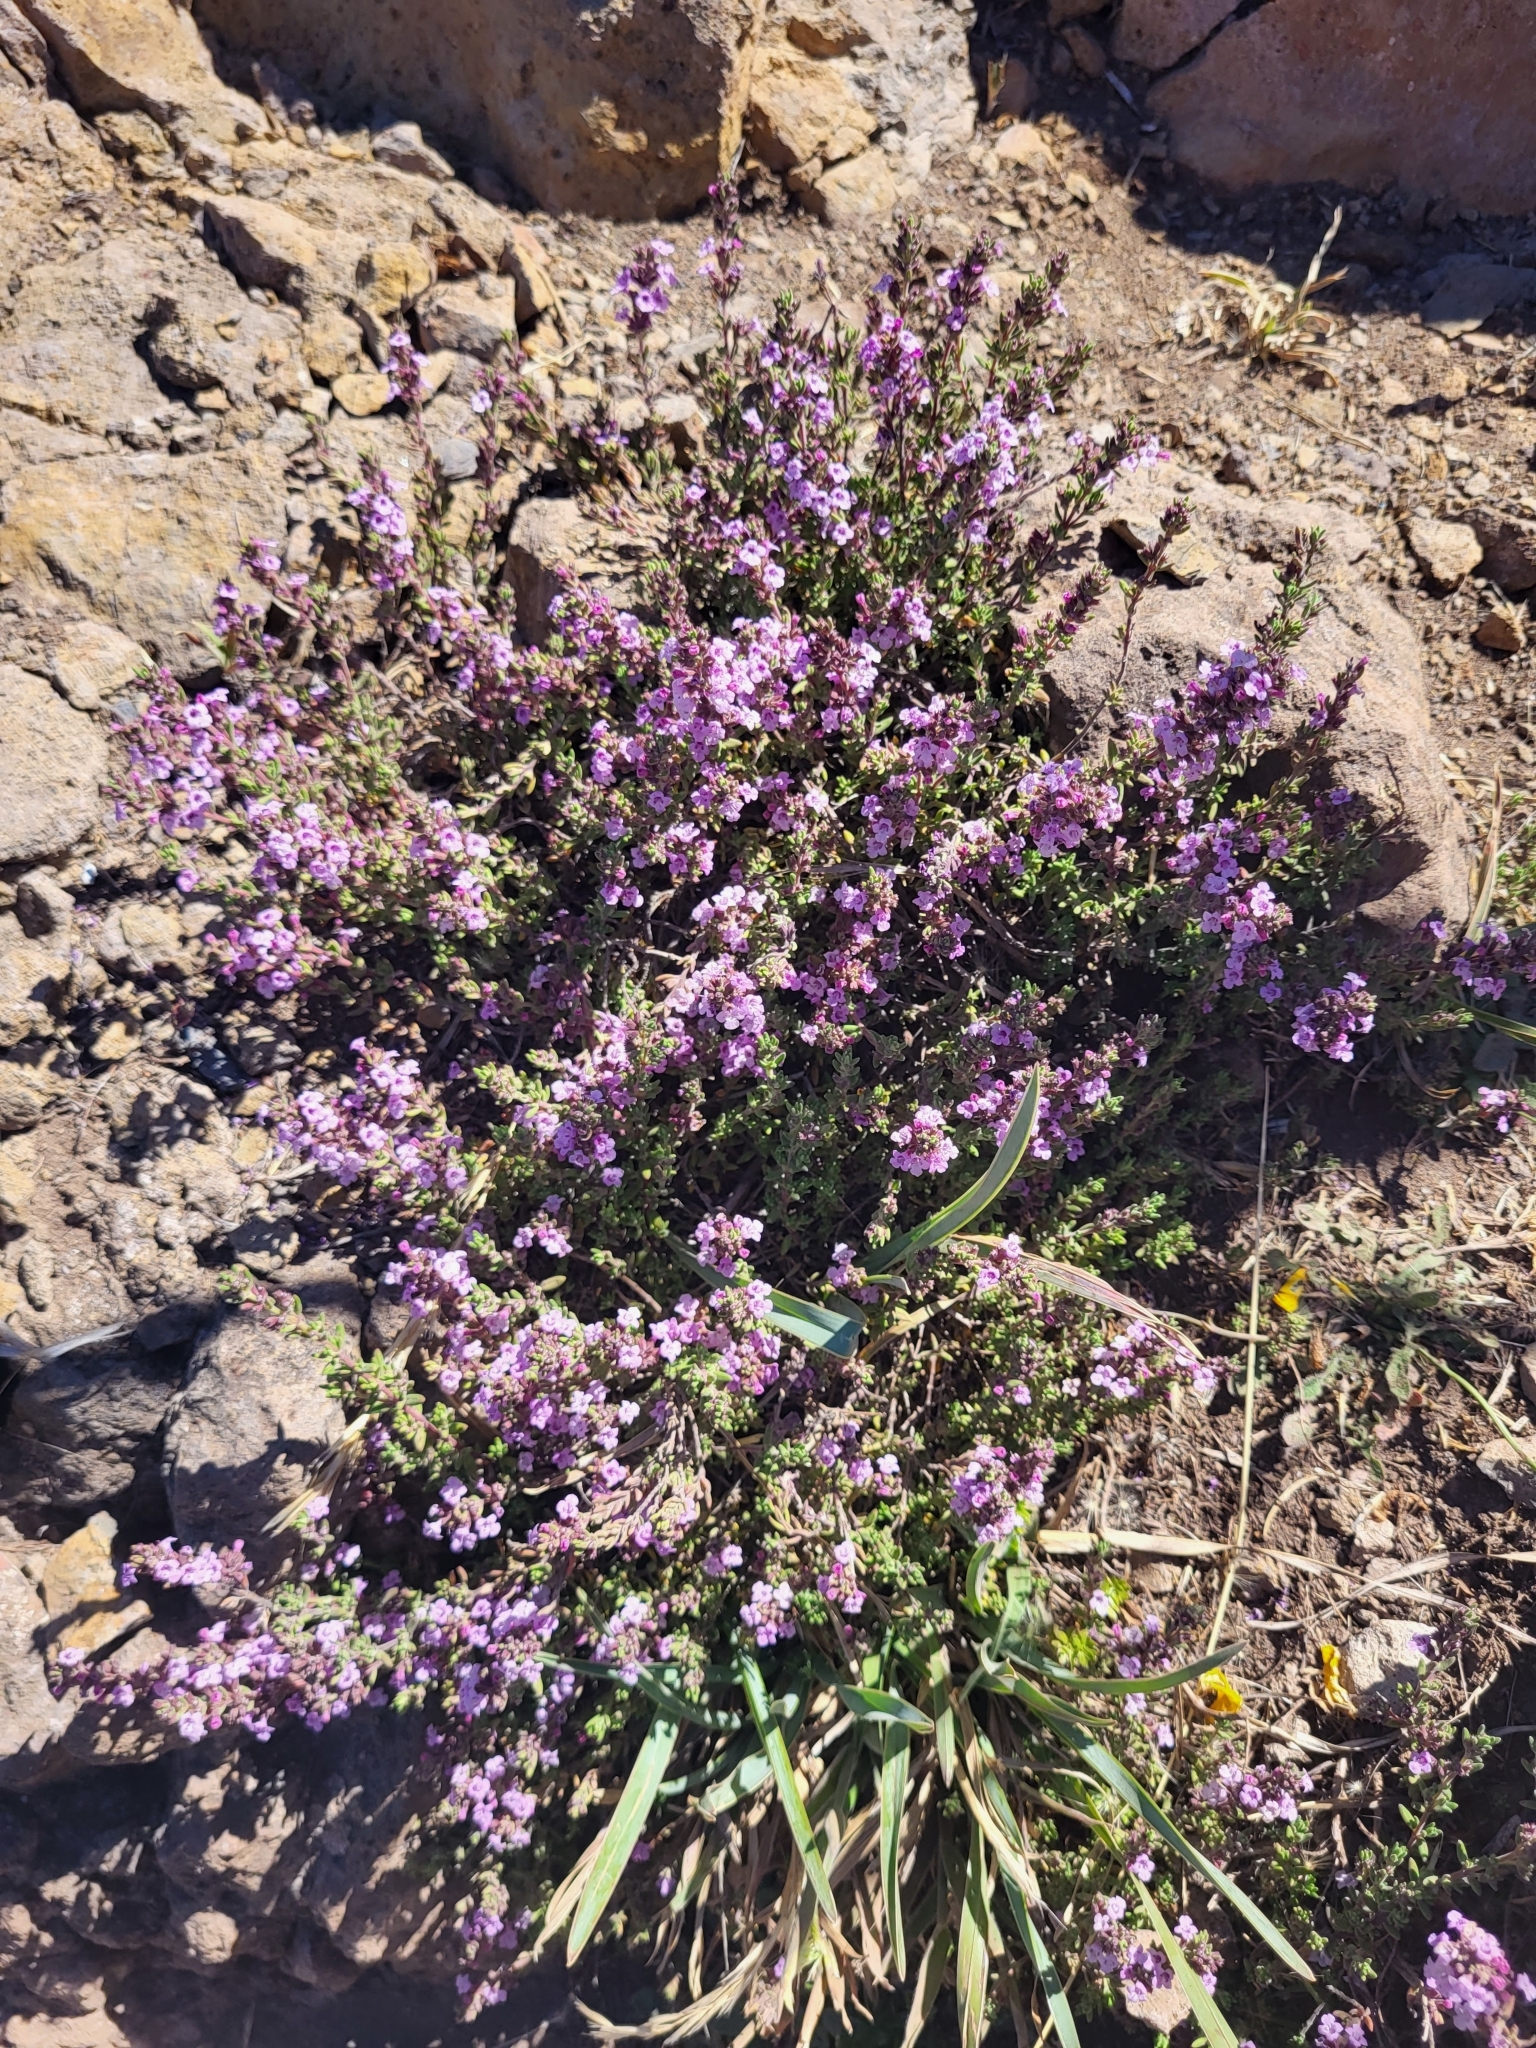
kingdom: Plantae
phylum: Tracheophyta
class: Magnoliopsida
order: Lamiales
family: Lamiaceae
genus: Micromeria
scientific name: Micromeria maderensis
